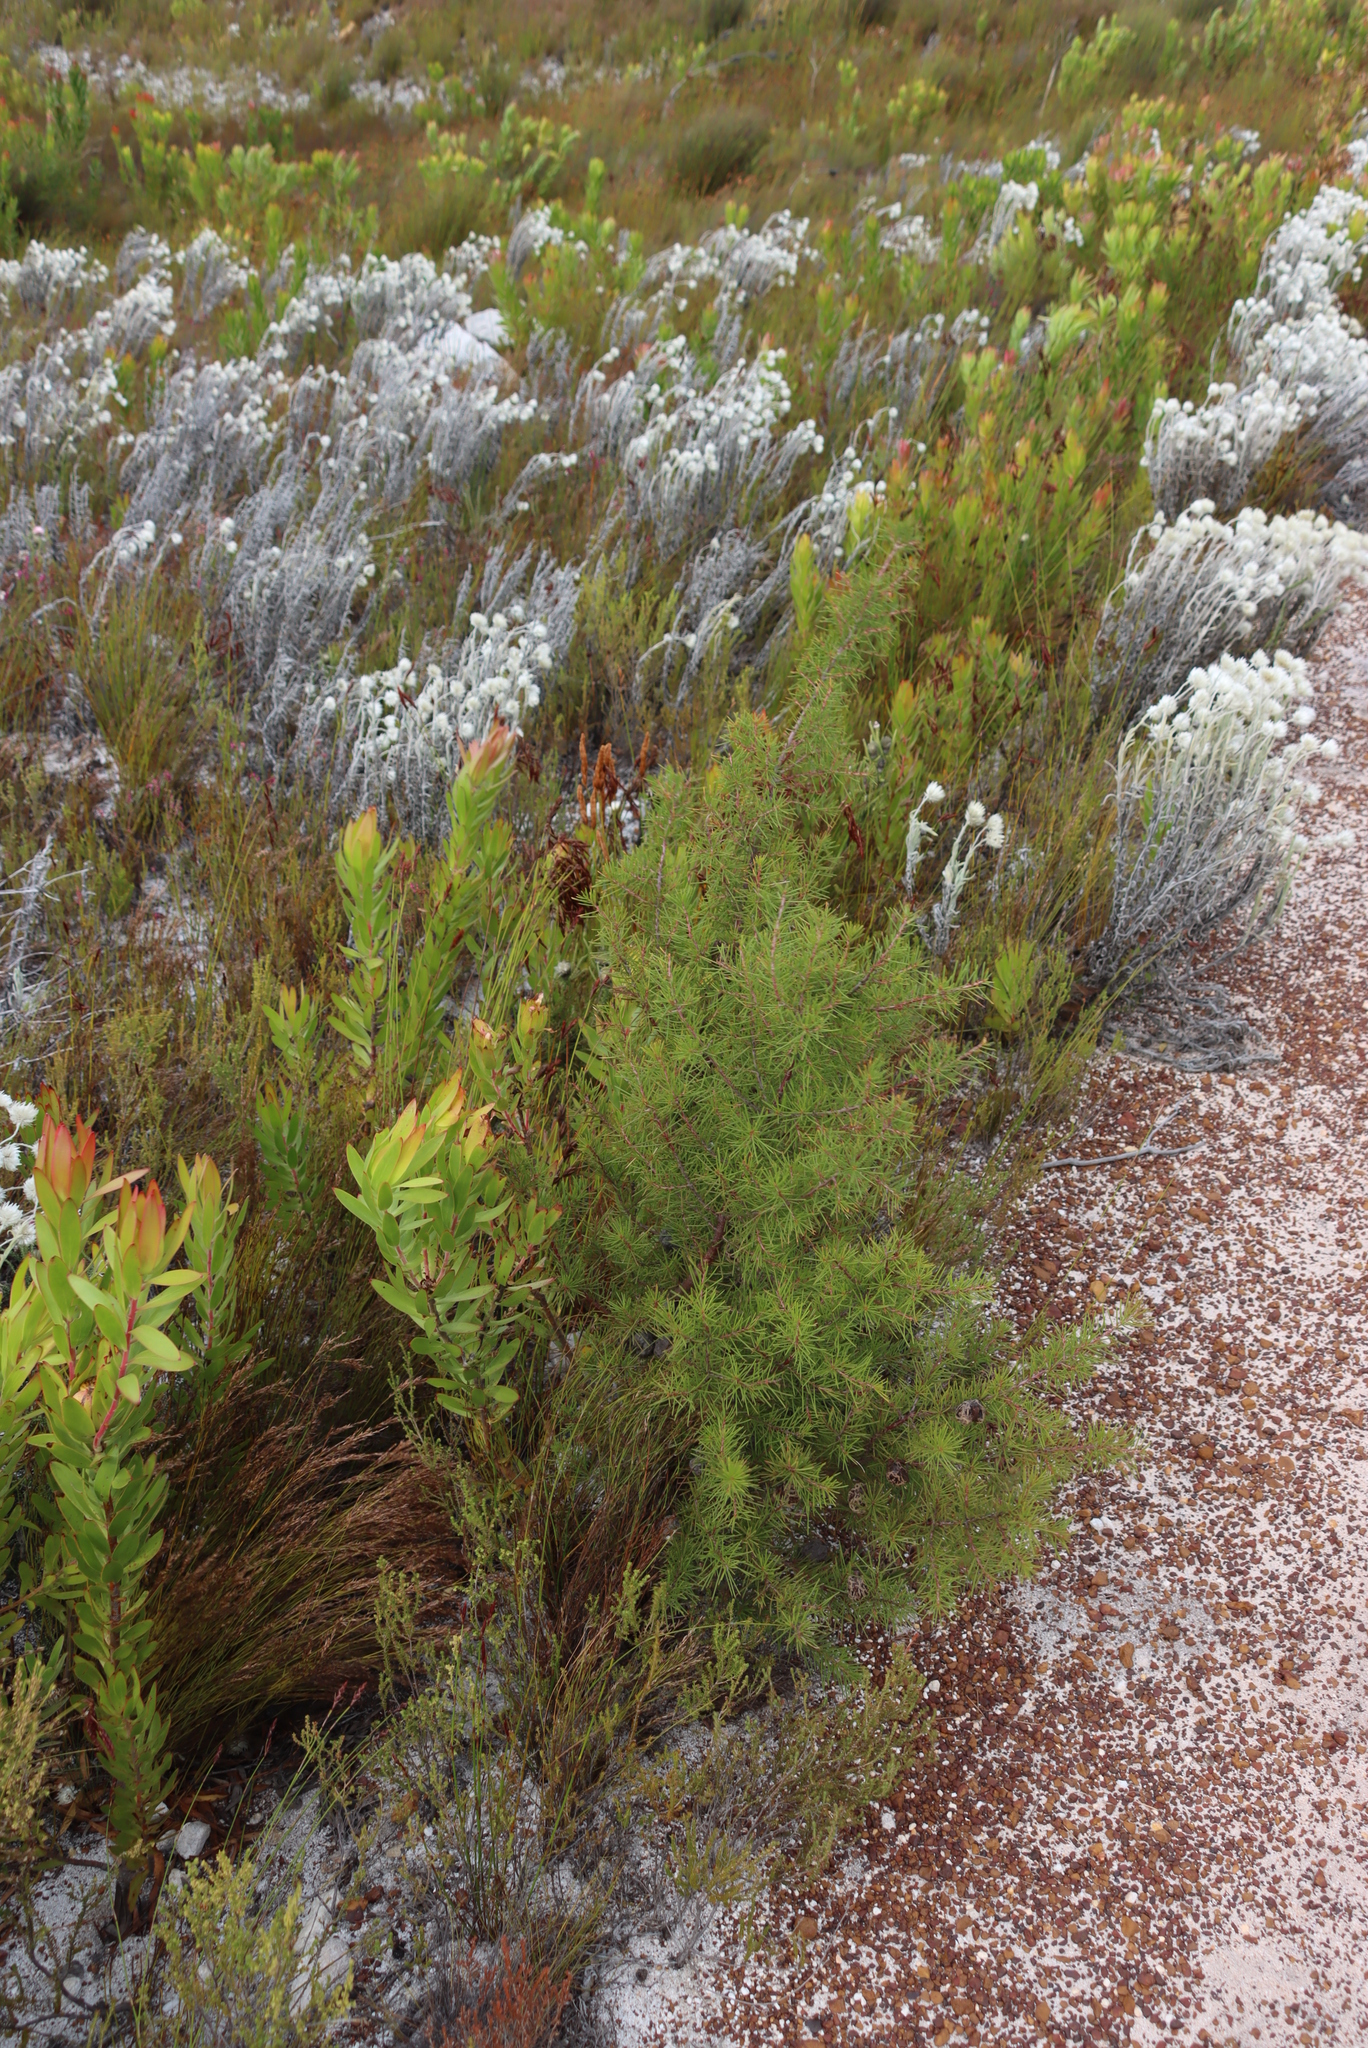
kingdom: Plantae
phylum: Tracheophyta
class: Magnoliopsida
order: Proteales
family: Proteaceae
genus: Hakea
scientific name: Hakea sericea
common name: Needle bush
